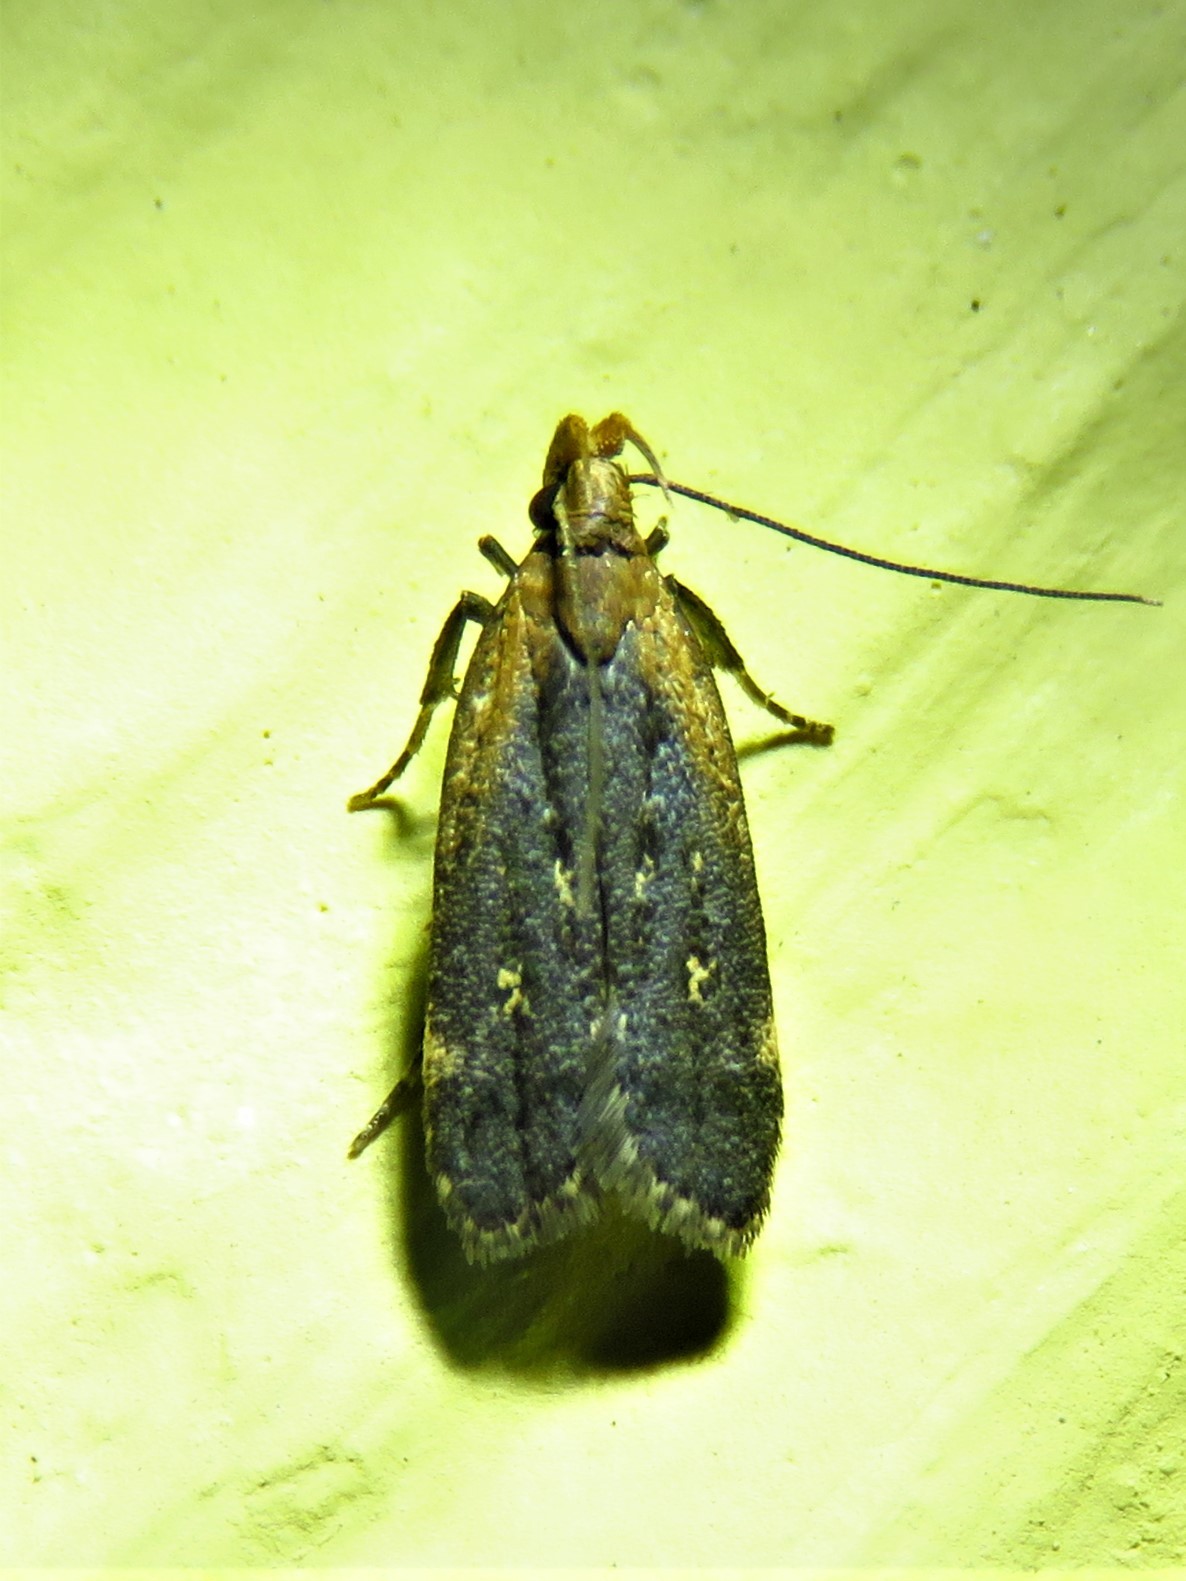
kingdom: Animalia
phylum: Arthropoda
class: Insecta
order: Lepidoptera
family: Gelechiidae
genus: Dichomeris
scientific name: Dichomeris costarufoella
